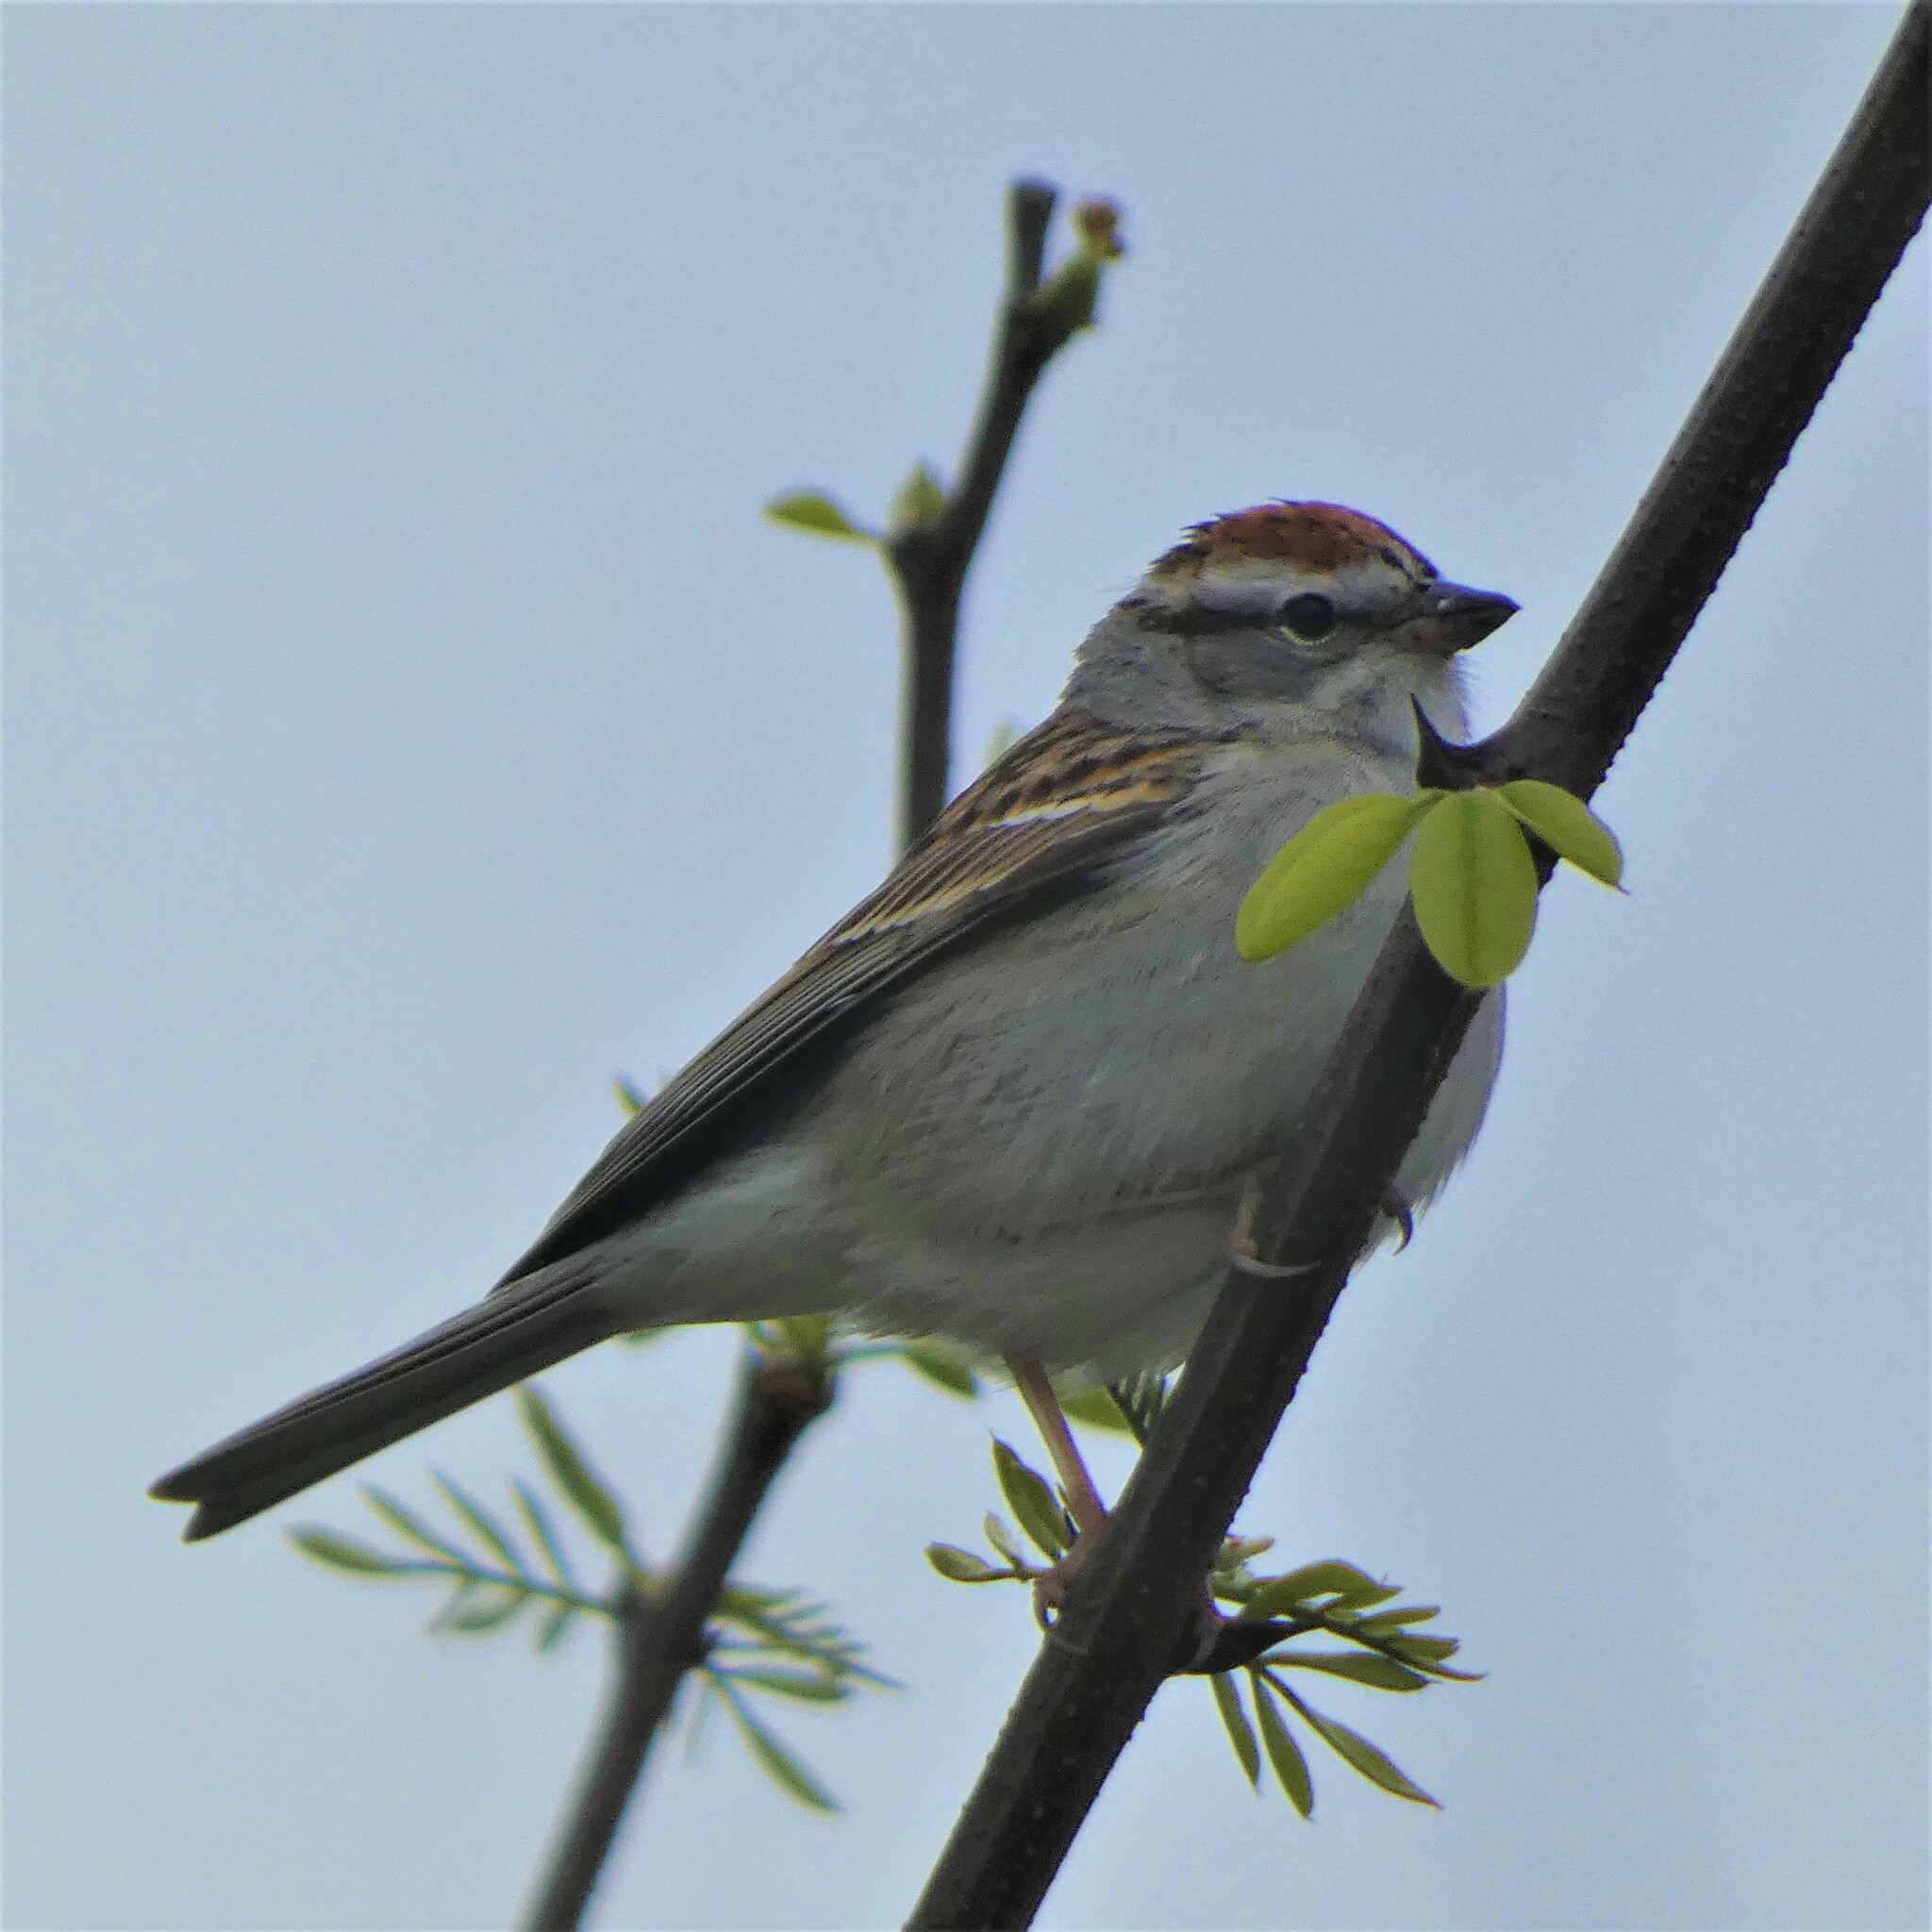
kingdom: Animalia
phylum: Chordata
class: Aves
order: Passeriformes
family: Passerellidae
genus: Spizella
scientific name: Spizella passerina
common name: Chipping sparrow
